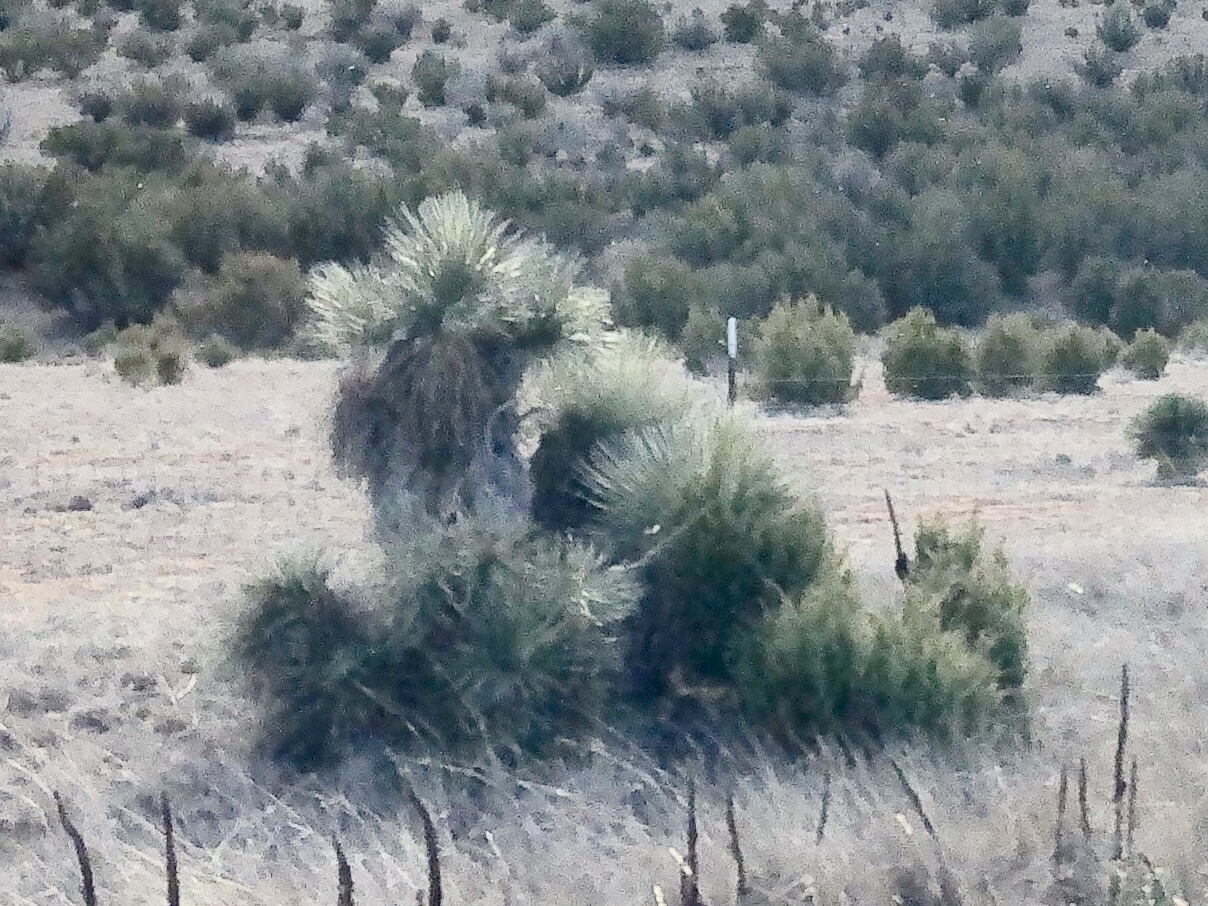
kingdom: Plantae
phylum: Tracheophyta
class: Liliopsida
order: Asparagales
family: Asparagaceae
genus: Yucca
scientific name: Yucca elata
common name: Palmella
